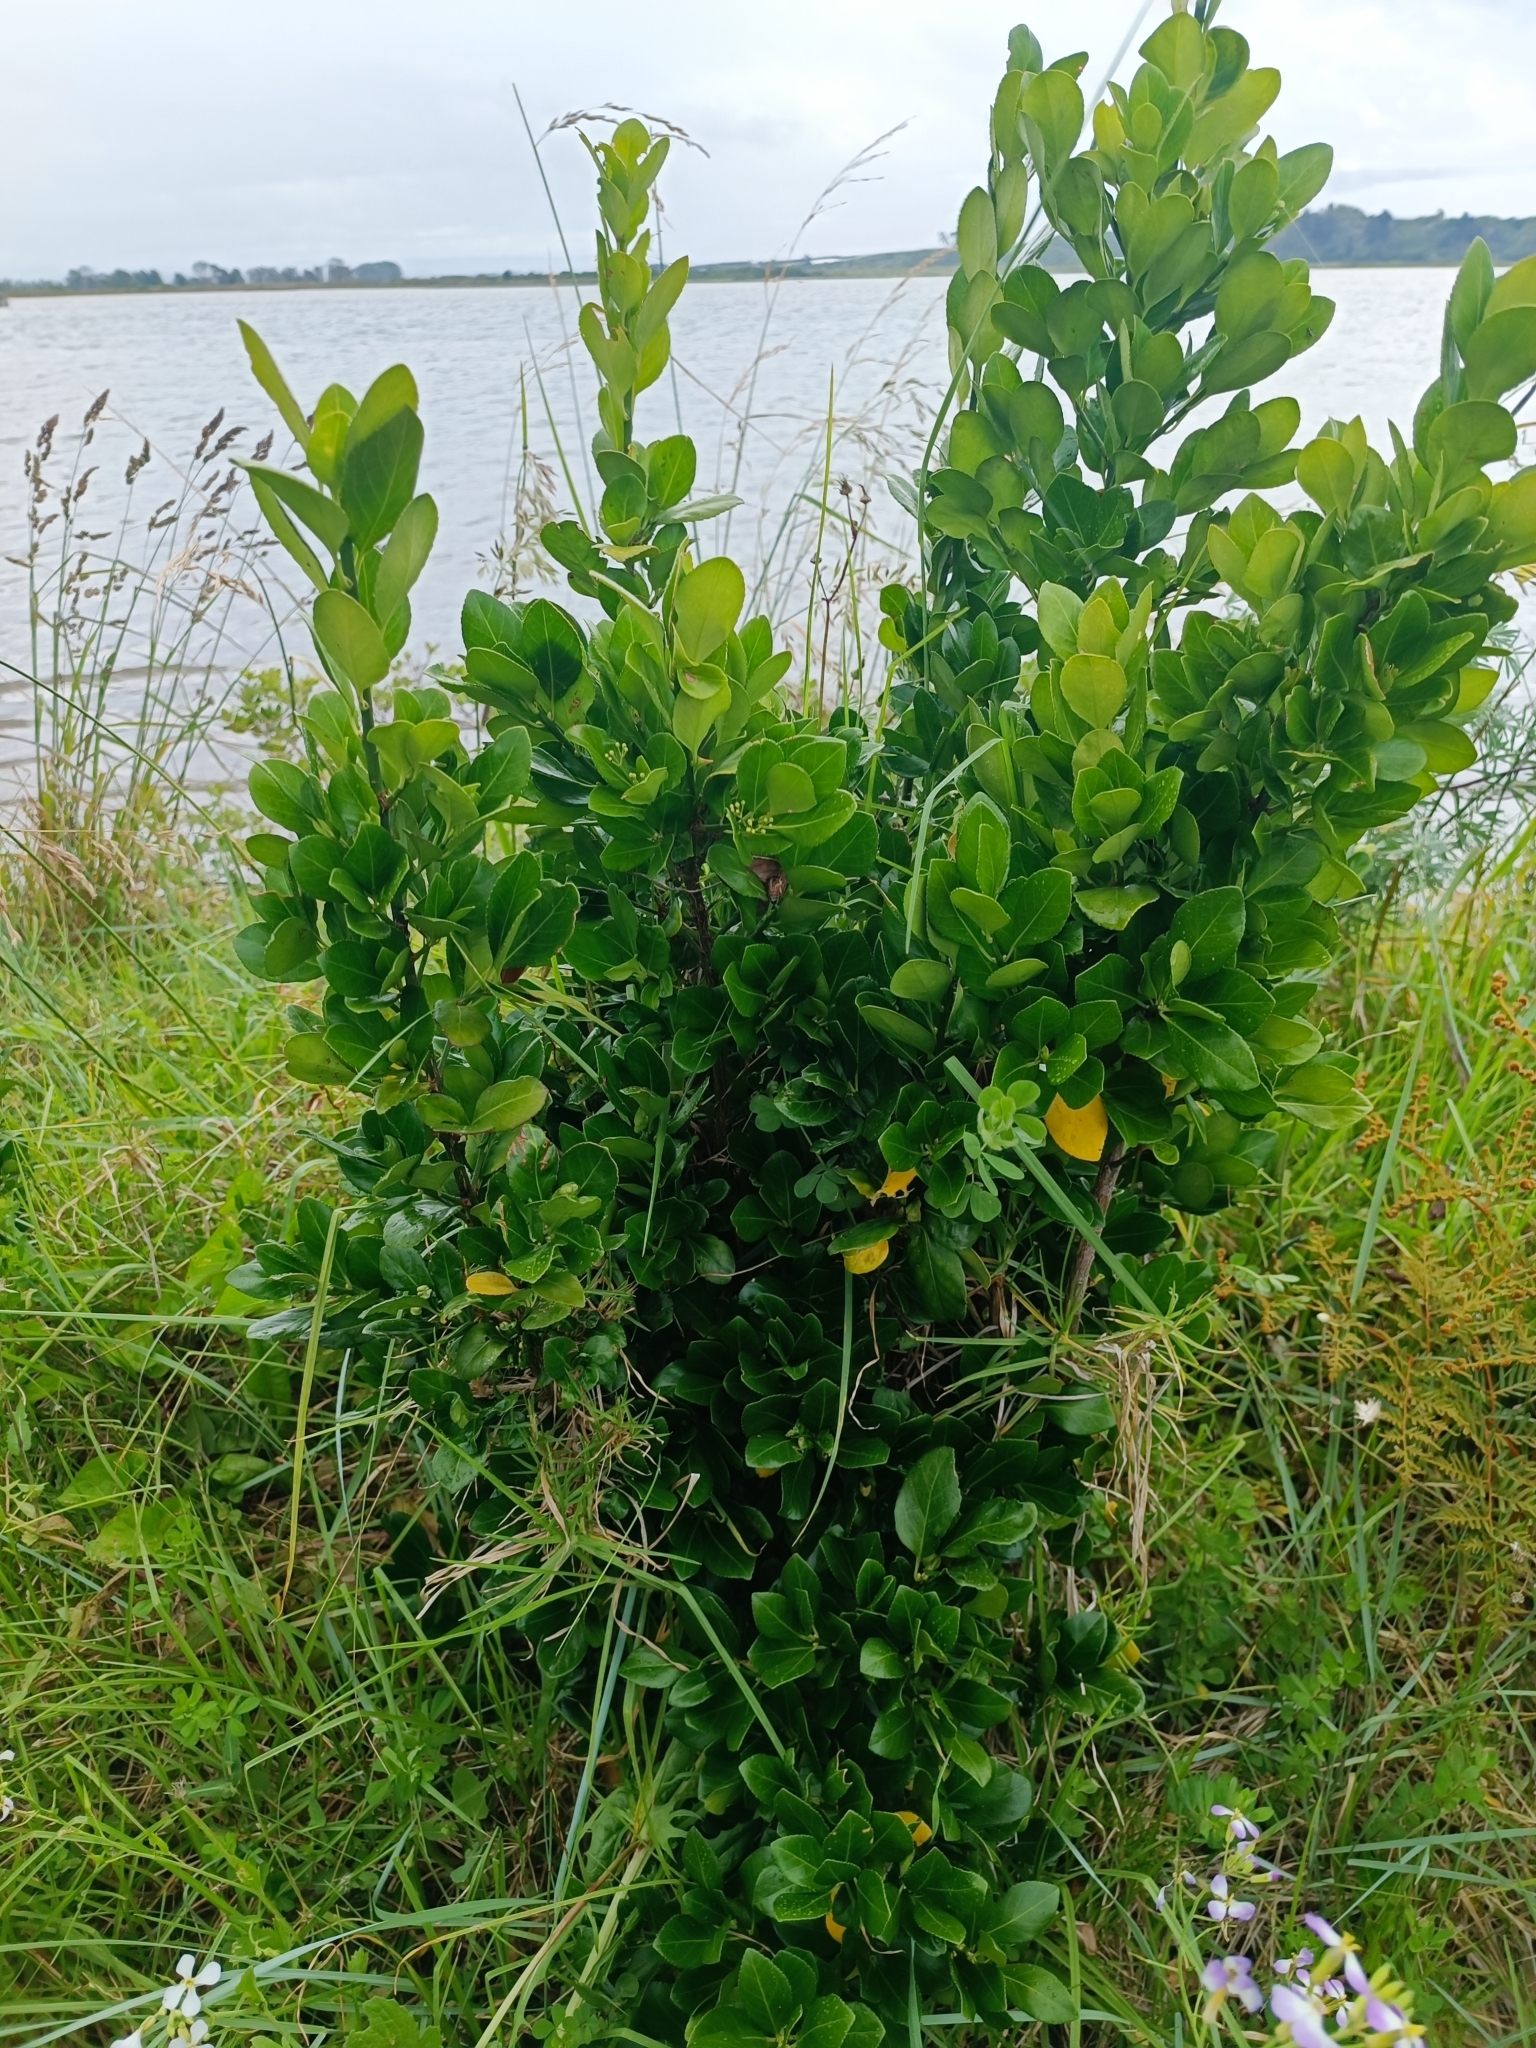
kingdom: Plantae
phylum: Tracheophyta
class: Magnoliopsida
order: Celastrales
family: Celastraceae
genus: Euonymus
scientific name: Euonymus japonicus
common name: Japanese spindletree
